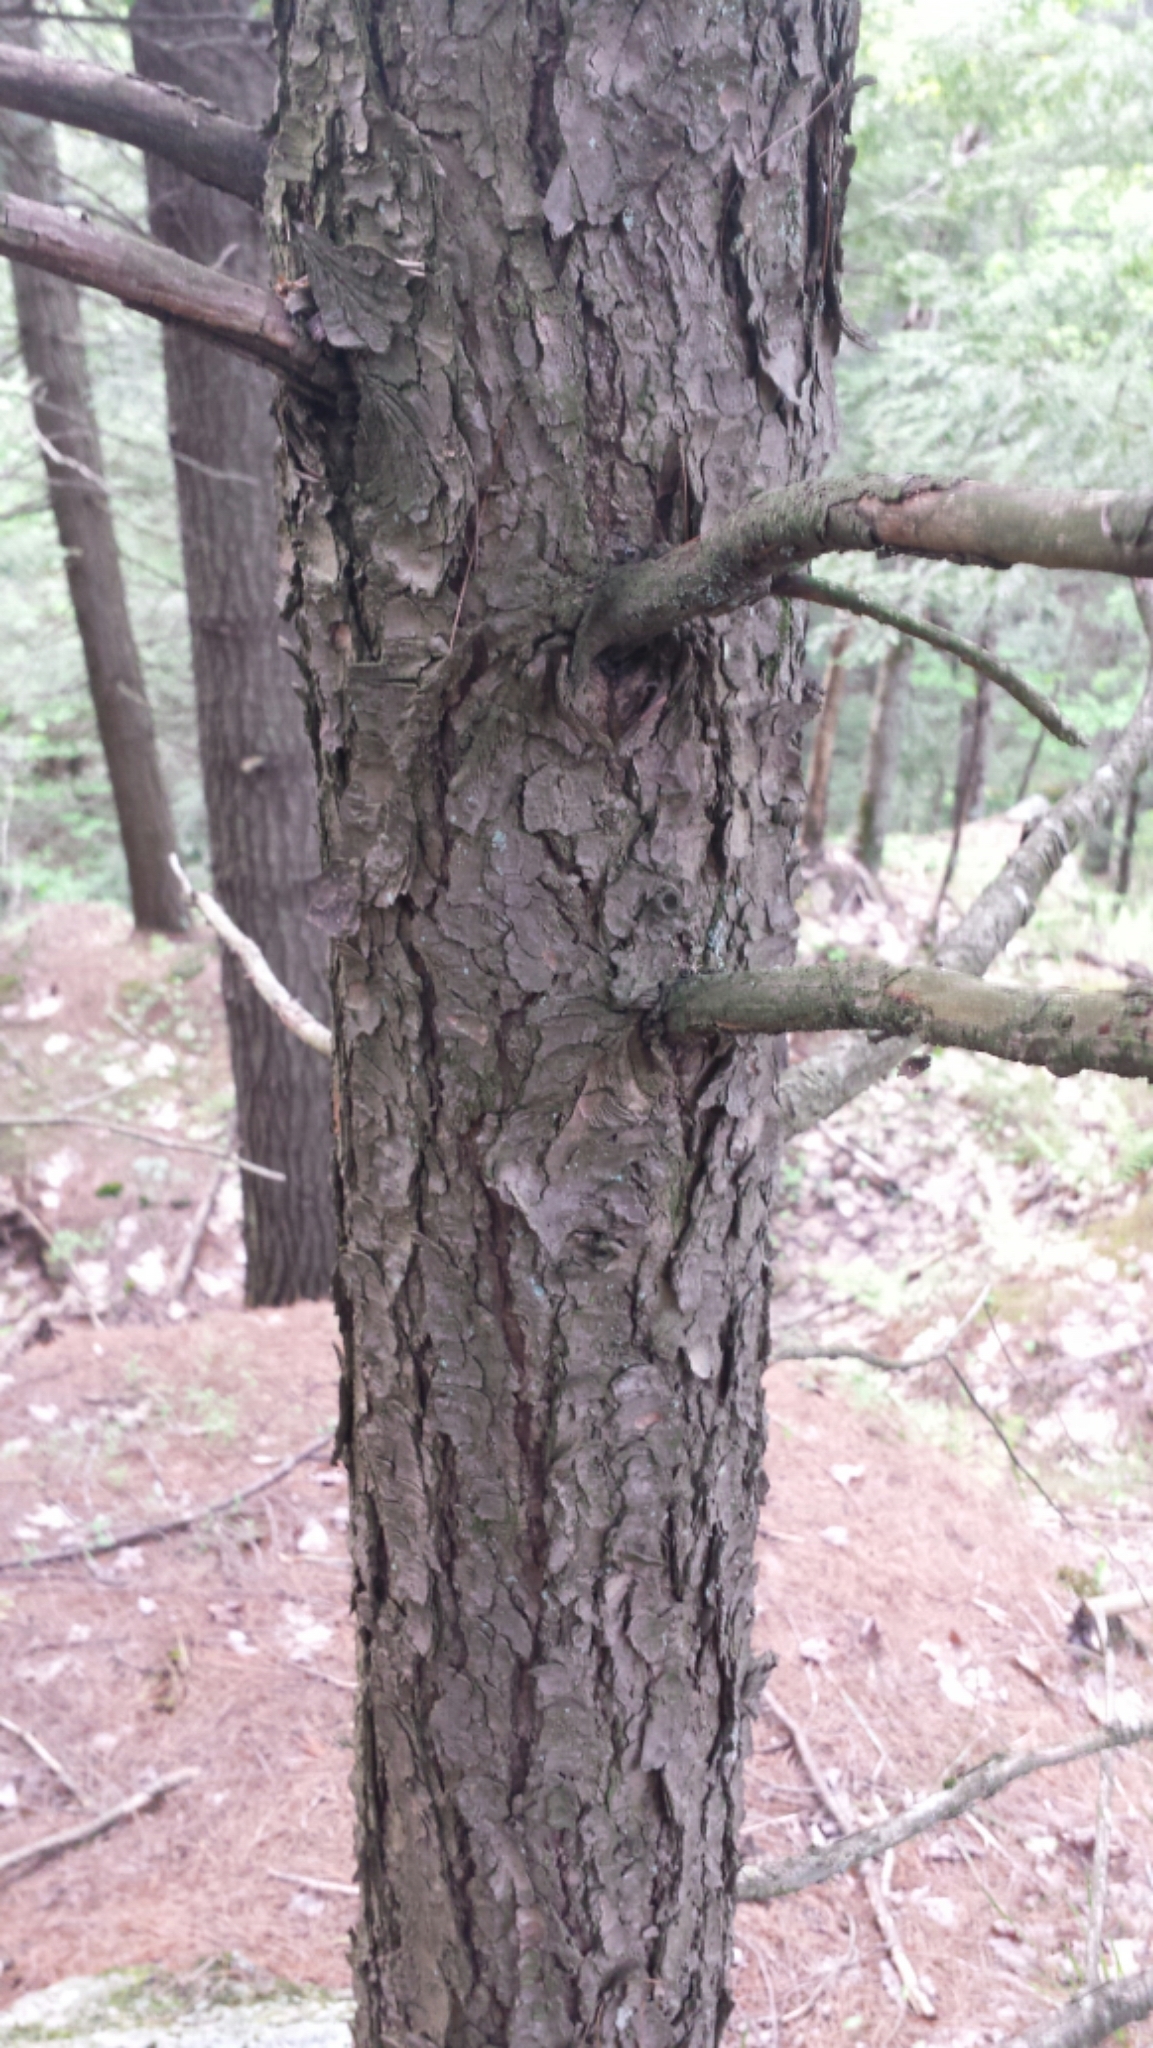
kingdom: Plantae
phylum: Tracheophyta
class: Pinopsida
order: Pinales
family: Pinaceae
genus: Tsuga
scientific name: Tsuga canadensis
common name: Eastern hemlock
